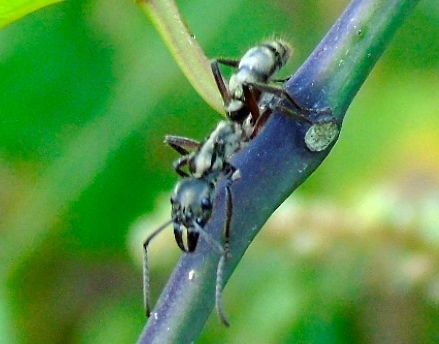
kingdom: Animalia
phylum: Arthropoda
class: Insecta
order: Hymenoptera
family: Formicidae
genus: Pachycondyla
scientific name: Pachycondyla villosa
